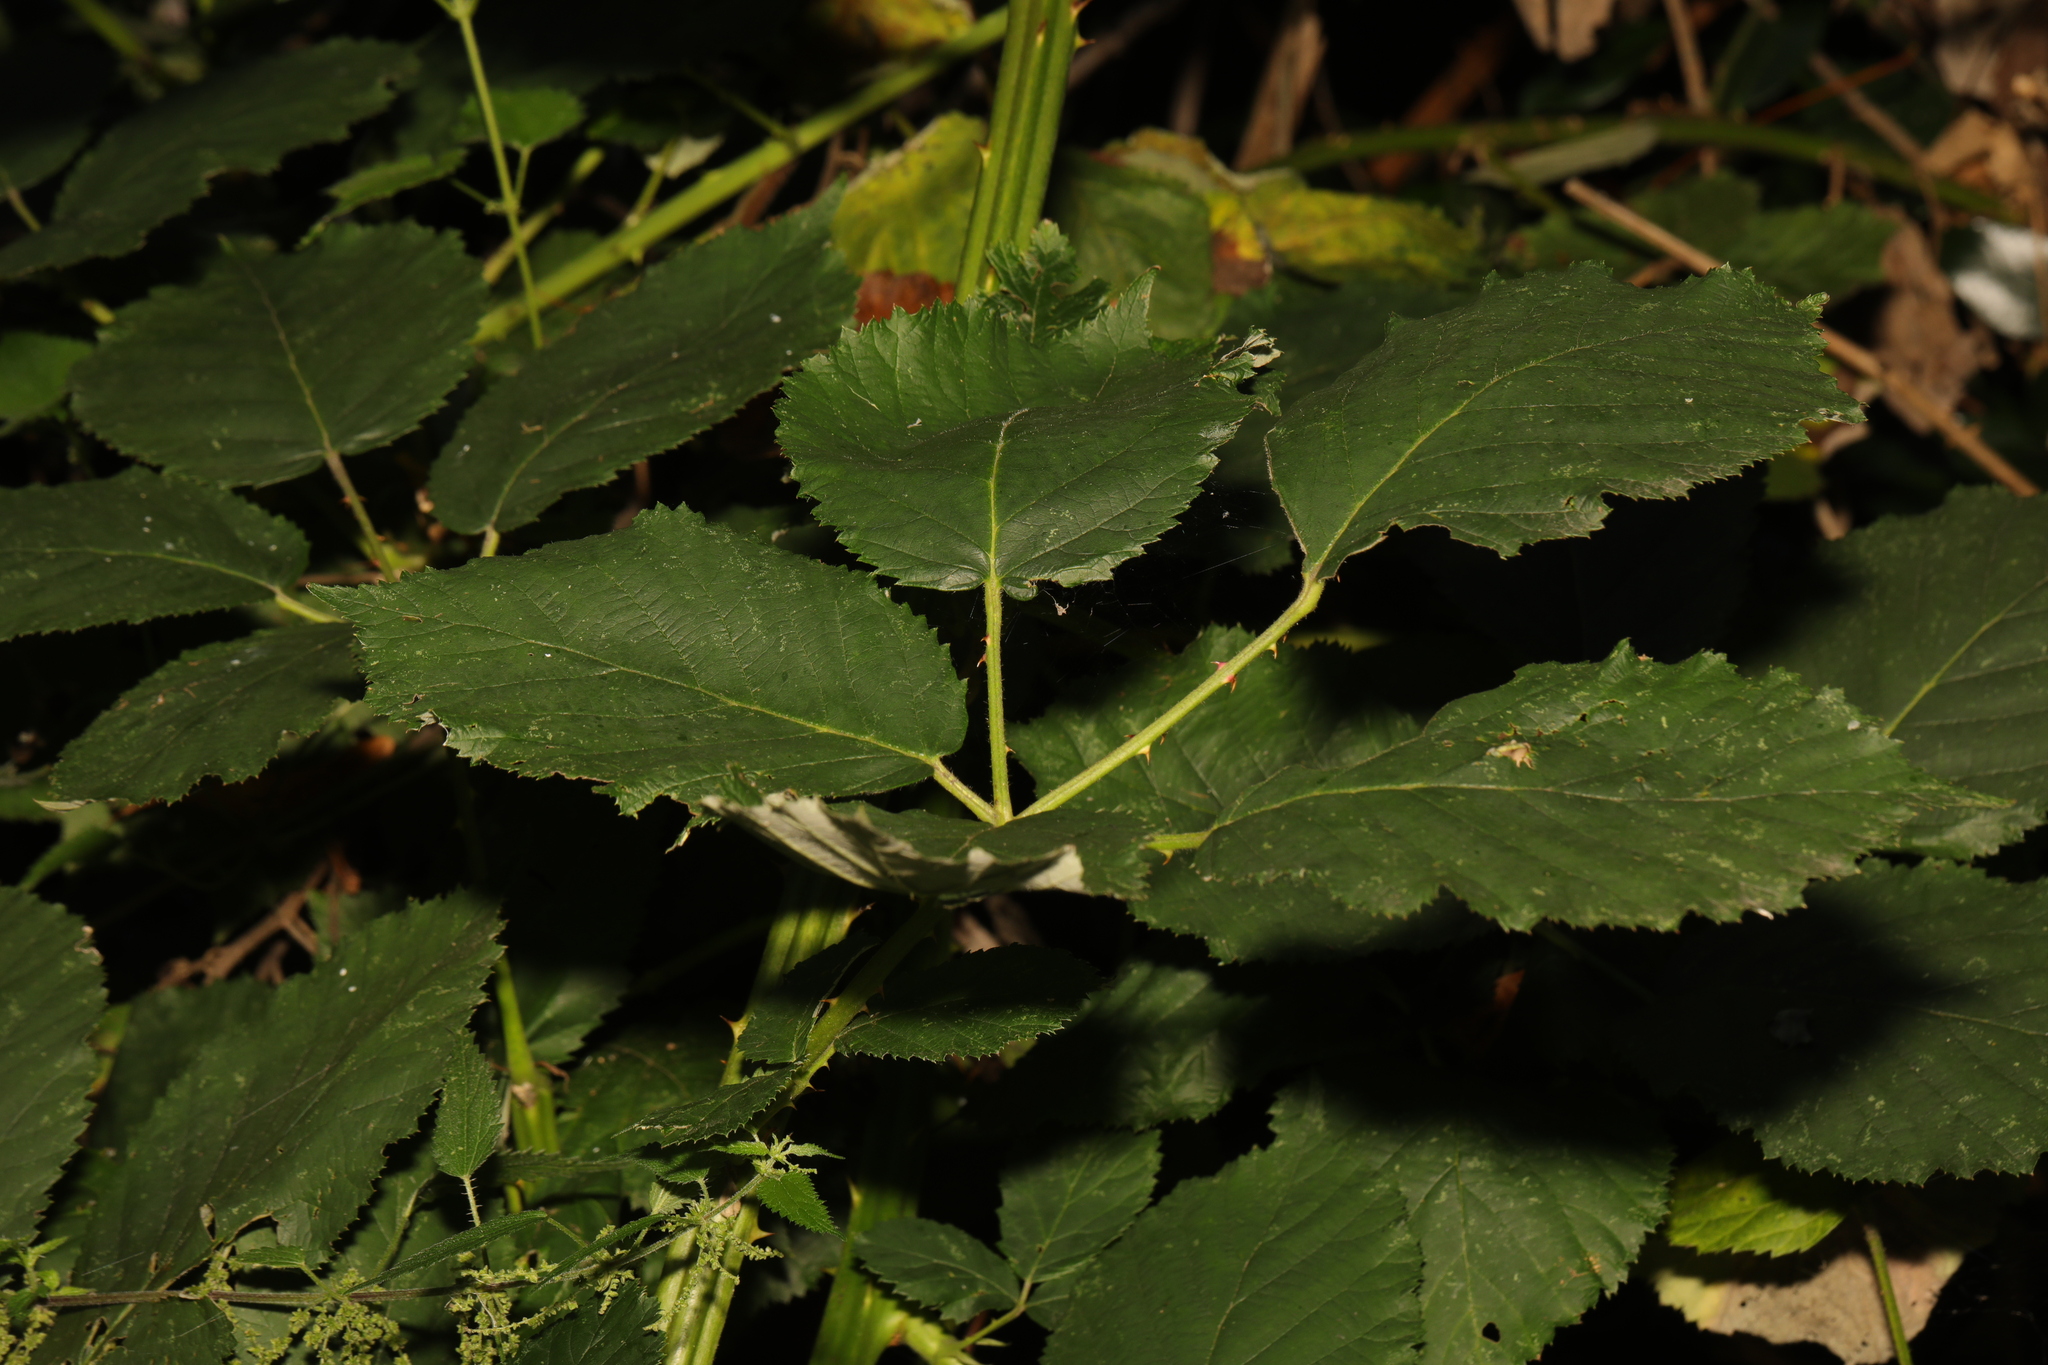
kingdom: Plantae
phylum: Tracheophyta
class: Magnoliopsida
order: Rosales
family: Rosaceae
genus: Rubus
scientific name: Rubus armeniacus
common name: Himalayan blackberry
